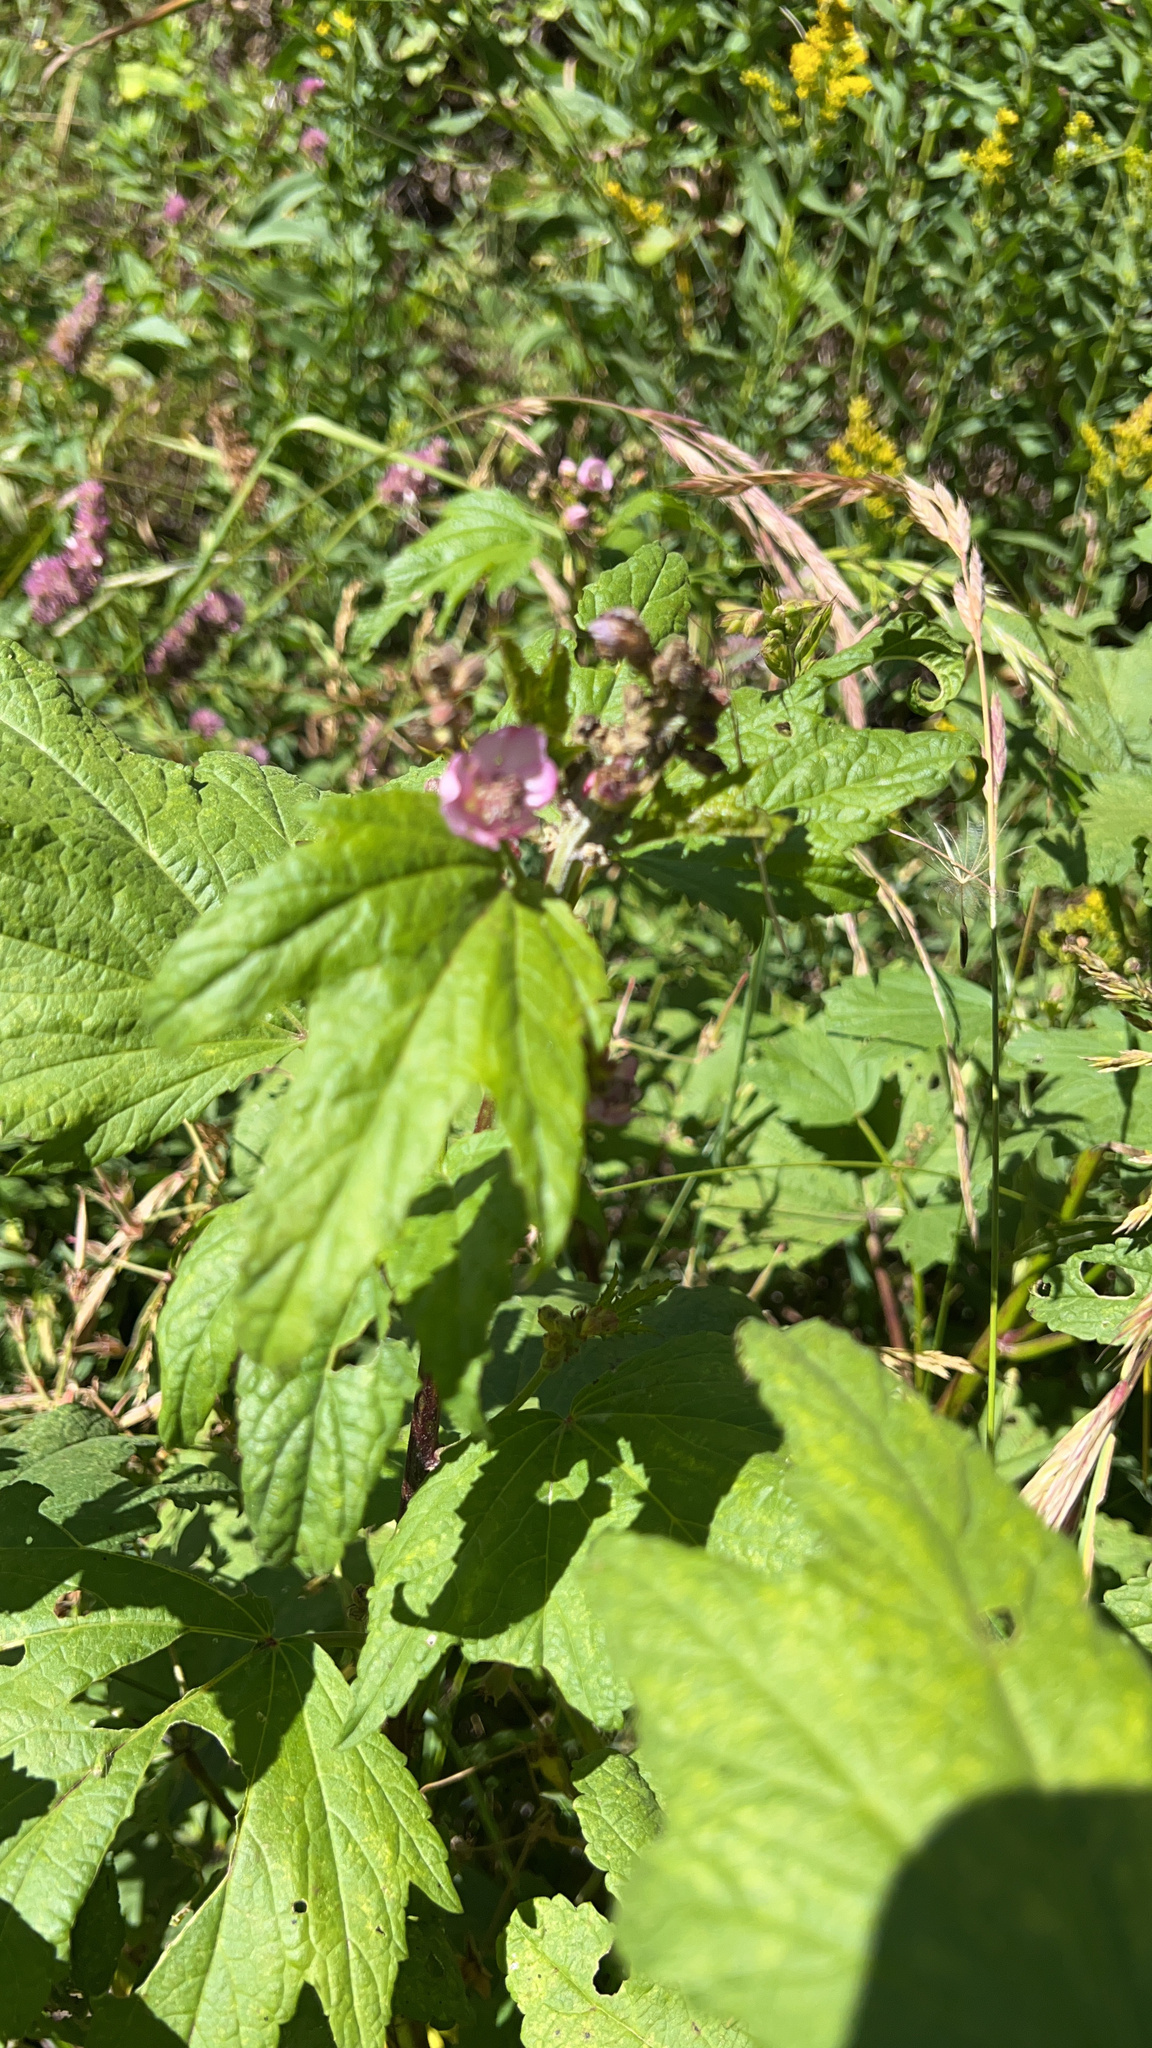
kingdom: Plantae
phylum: Tracheophyta
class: Magnoliopsida
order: Malvales
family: Malvaceae
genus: Iliamna
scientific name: Iliamna rivularis
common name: Wild hollyhock
